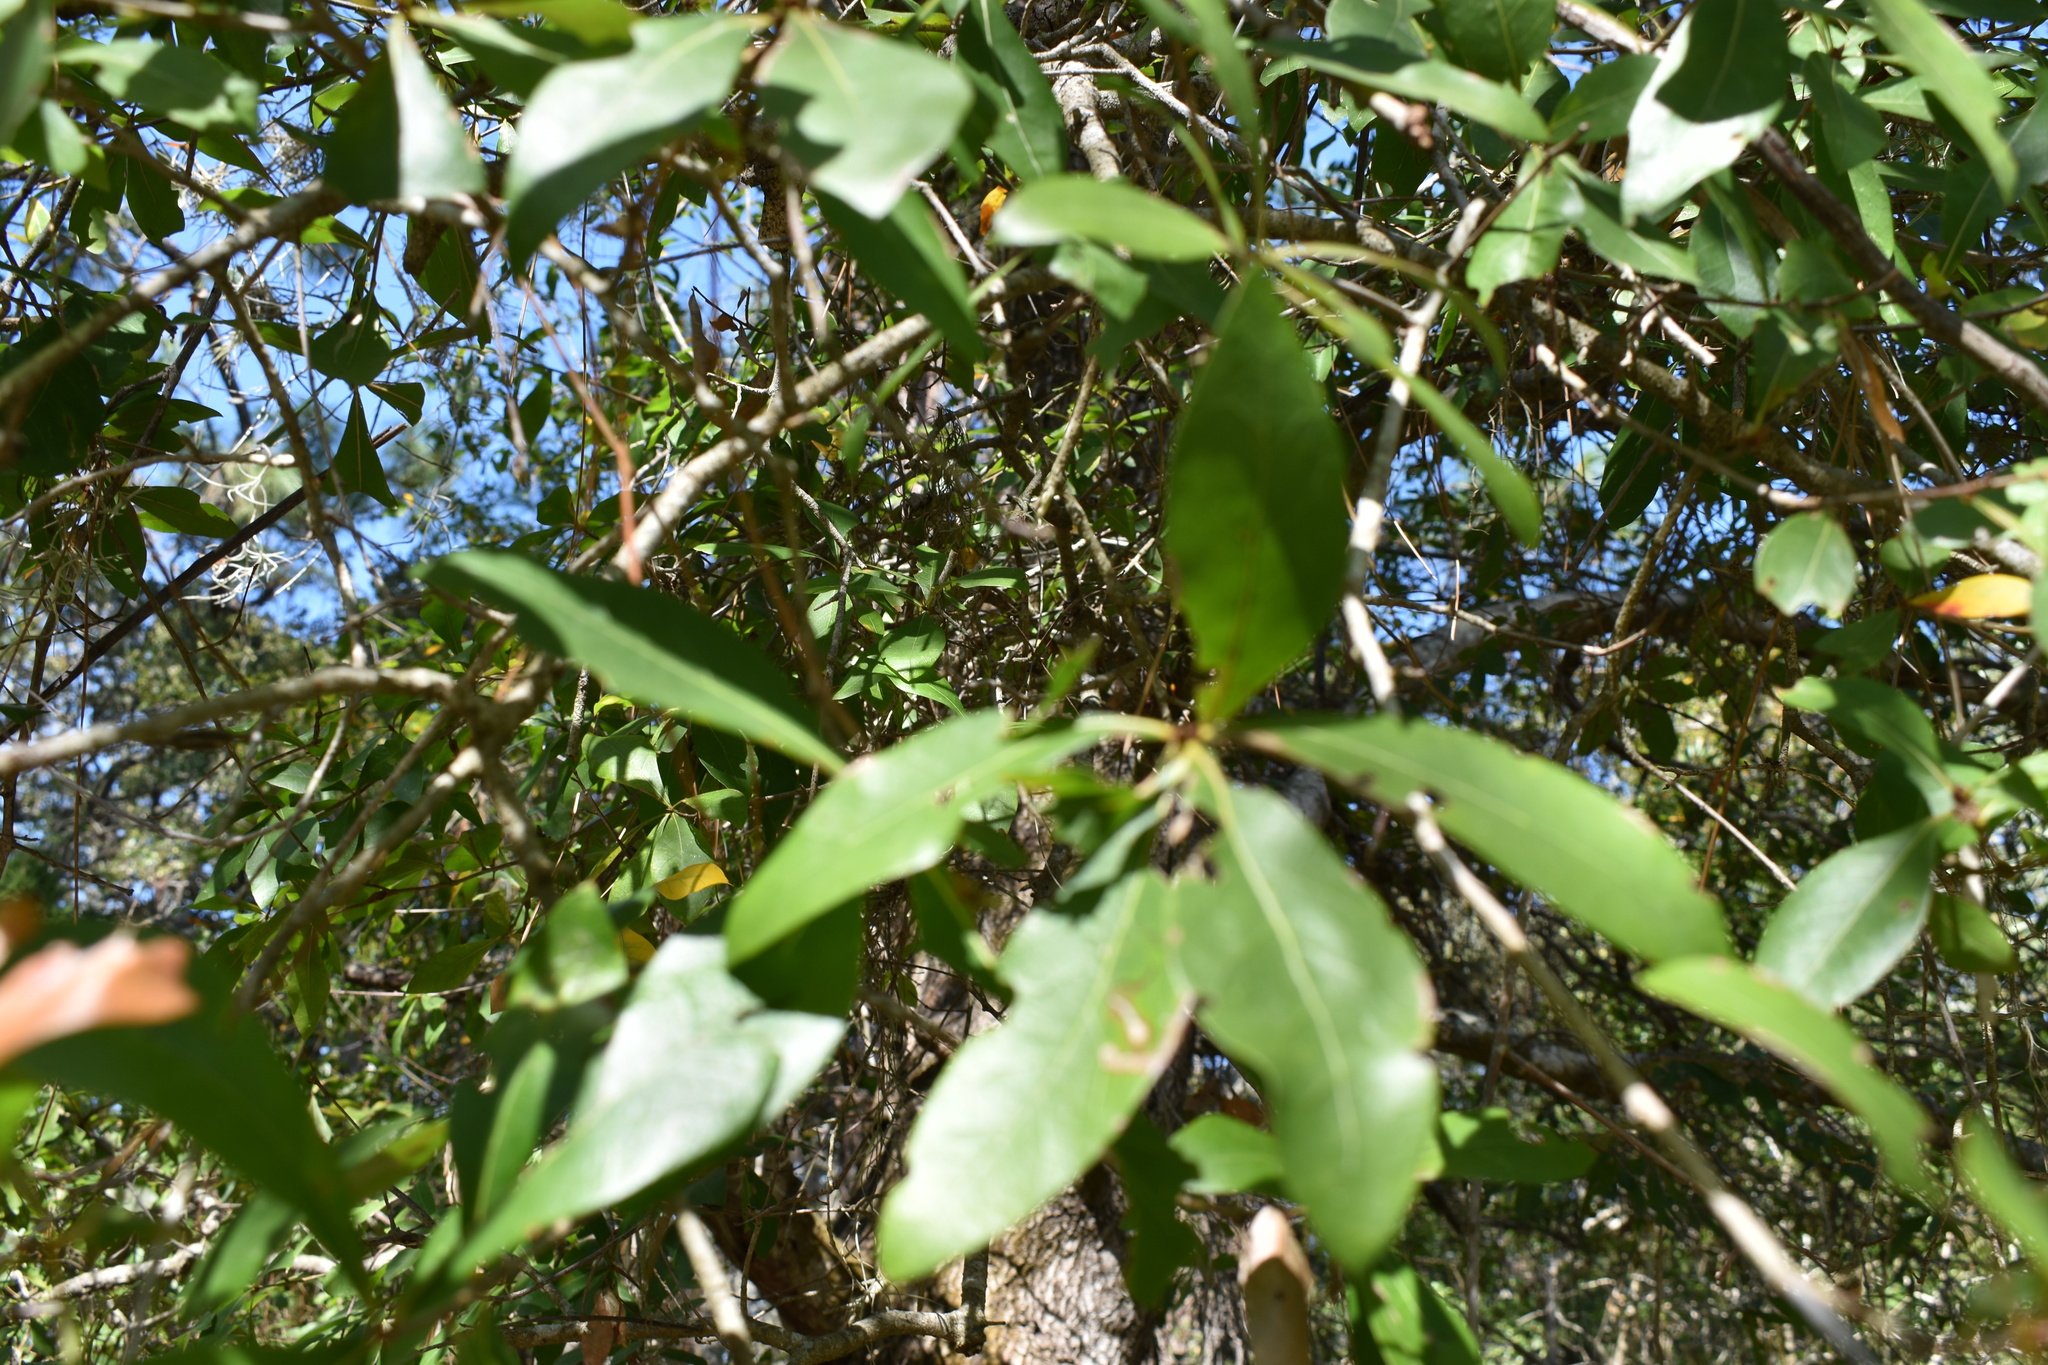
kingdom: Plantae
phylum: Tracheophyta
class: Magnoliopsida
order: Fagales
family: Fagaceae
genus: Quercus
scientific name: Quercus laurifolia
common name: Swamp laurel oak
